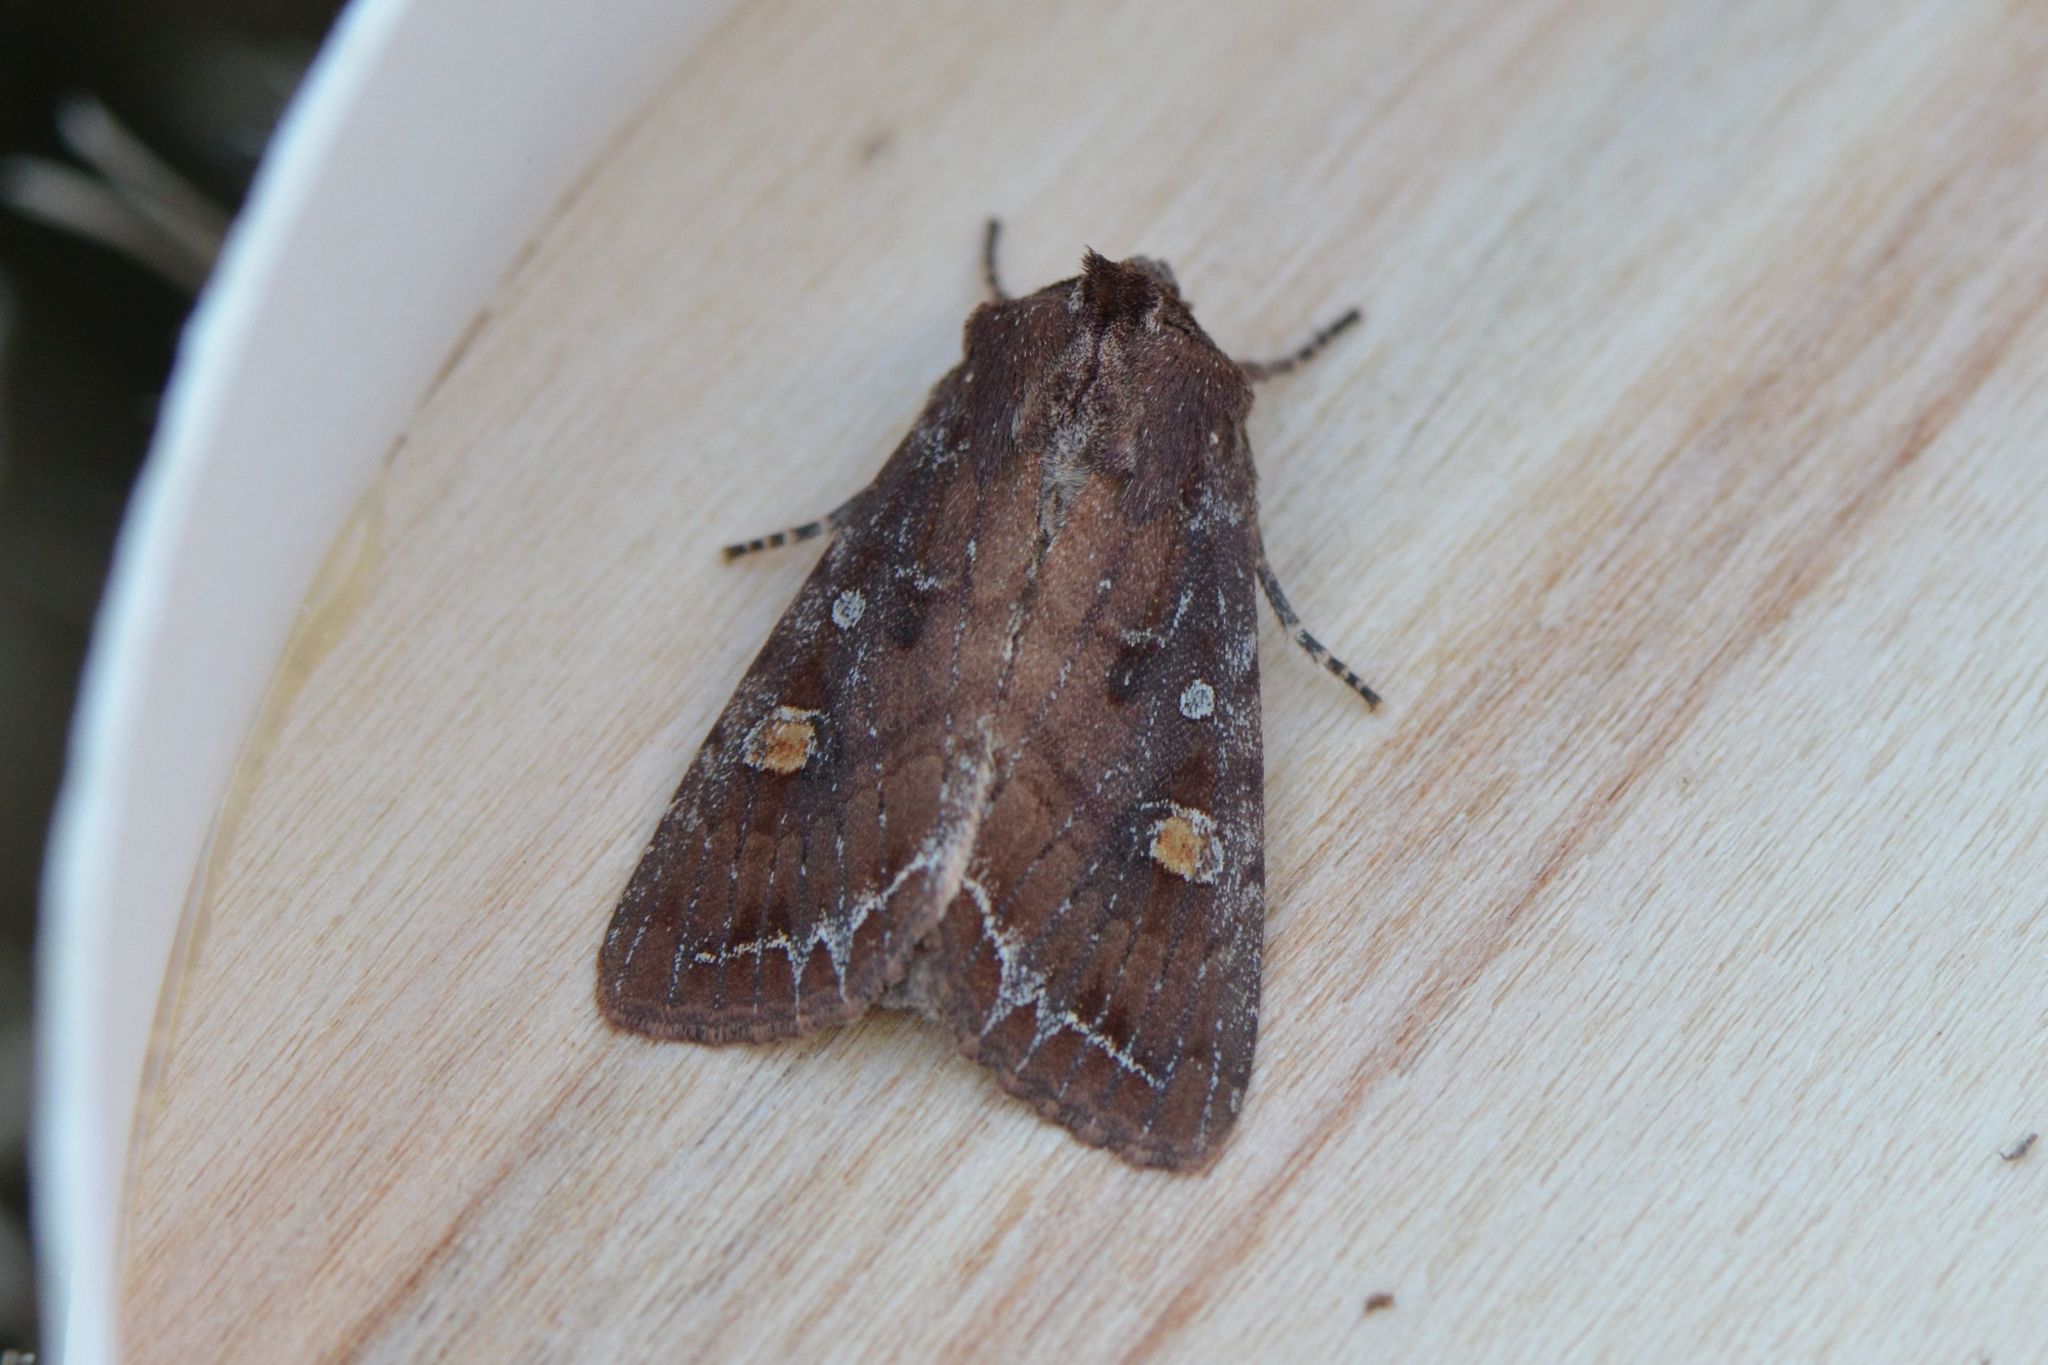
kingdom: Animalia
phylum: Arthropoda
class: Insecta
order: Lepidoptera
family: Noctuidae
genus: Lacanobia
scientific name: Lacanobia oleracea
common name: Bright-line brown-eye
